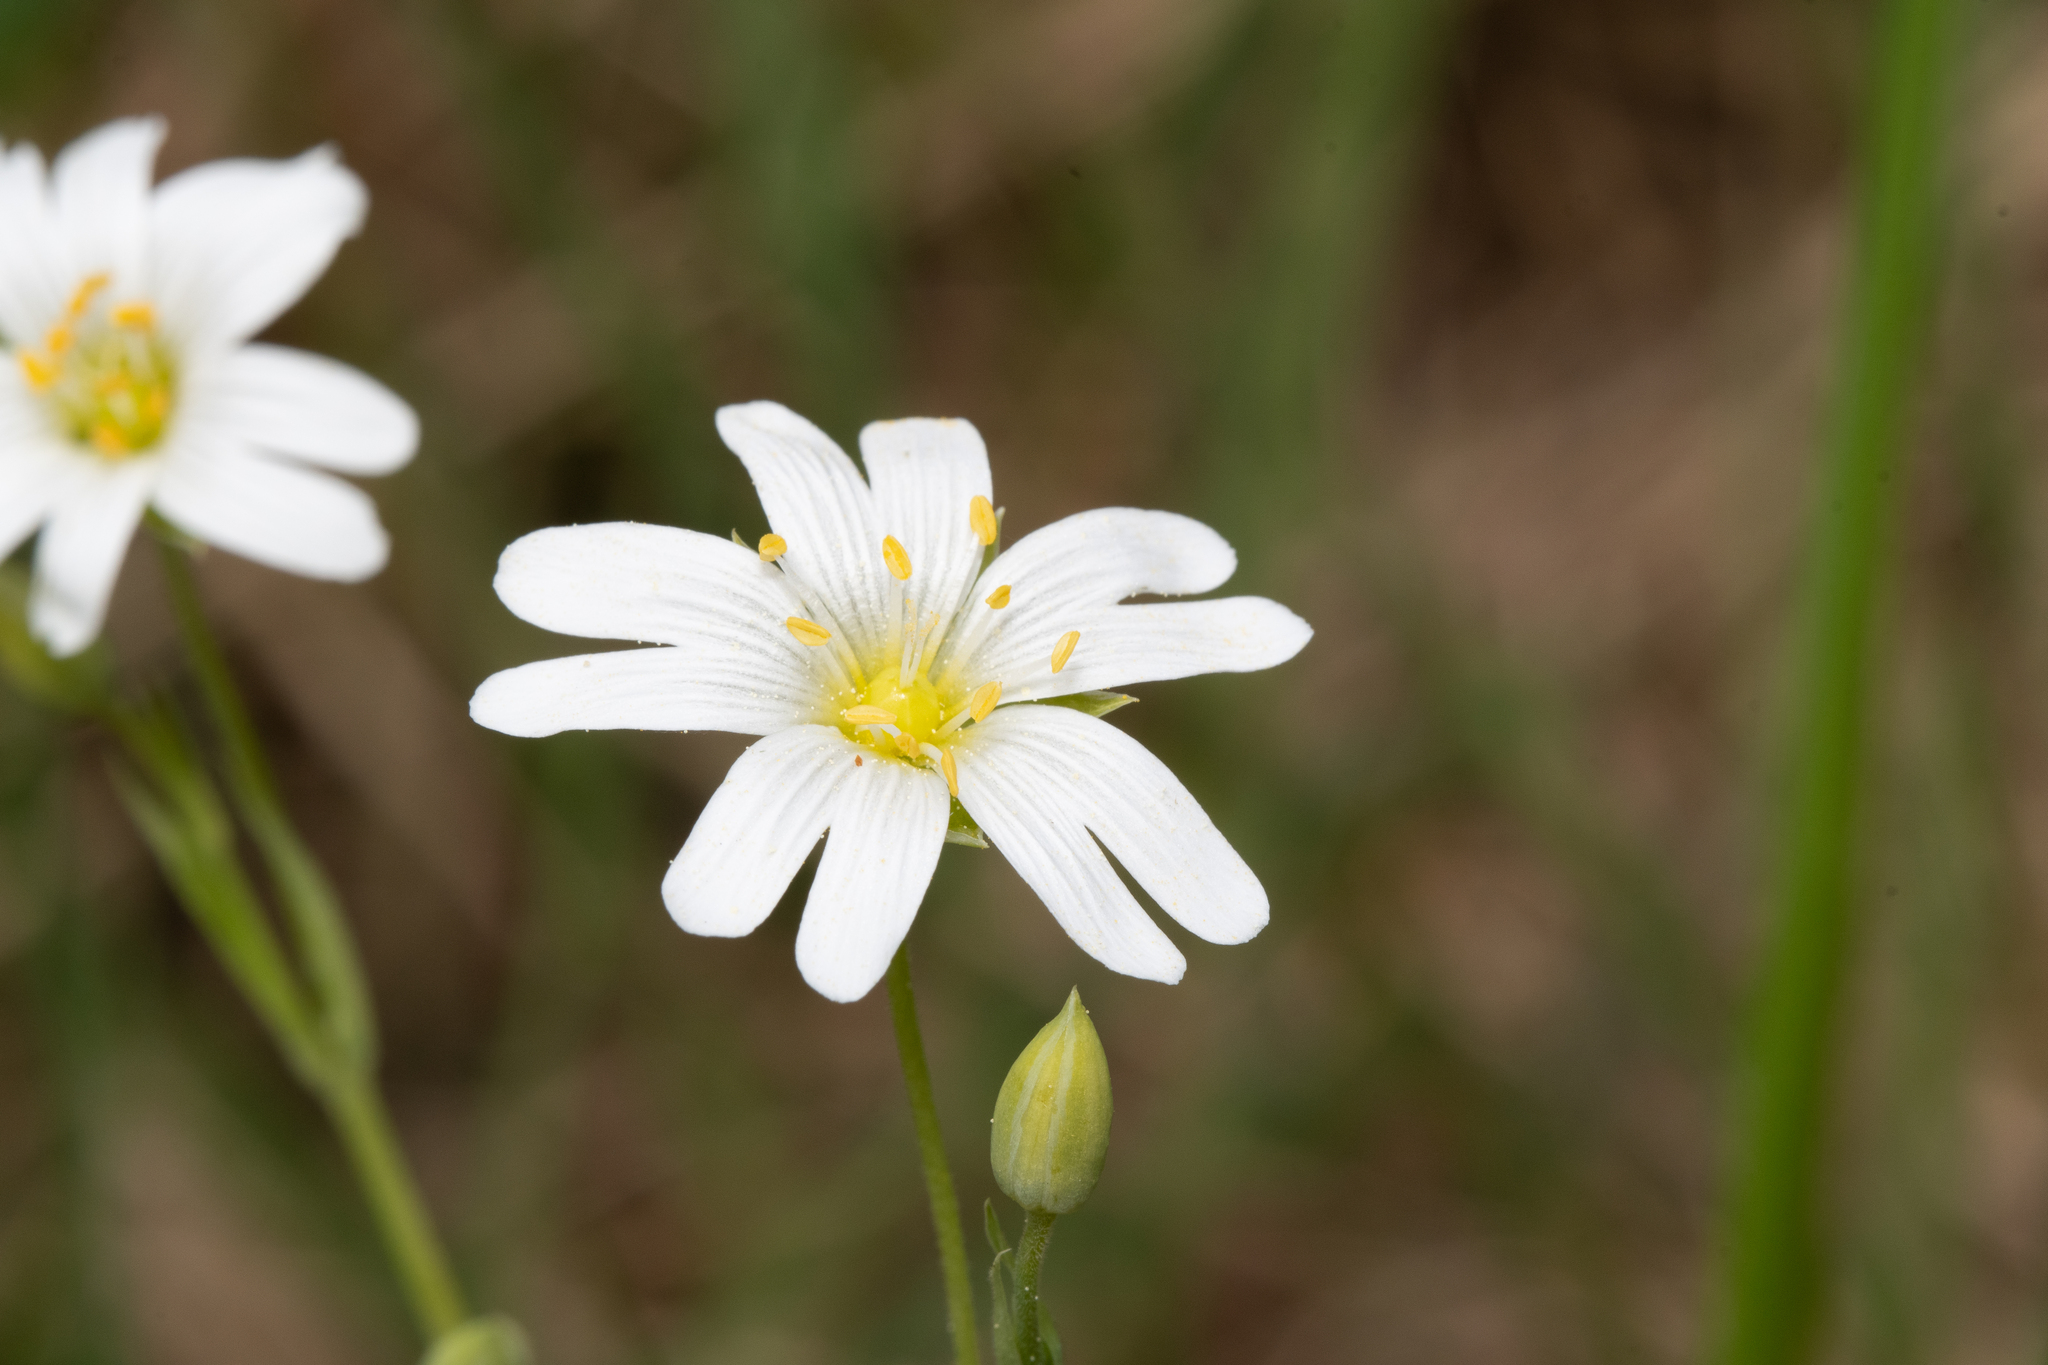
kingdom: Plantae
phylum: Tracheophyta
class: Magnoliopsida
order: Caryophyllales
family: Caryophyllaceae
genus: Rabelera
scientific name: Rabelera holostea
